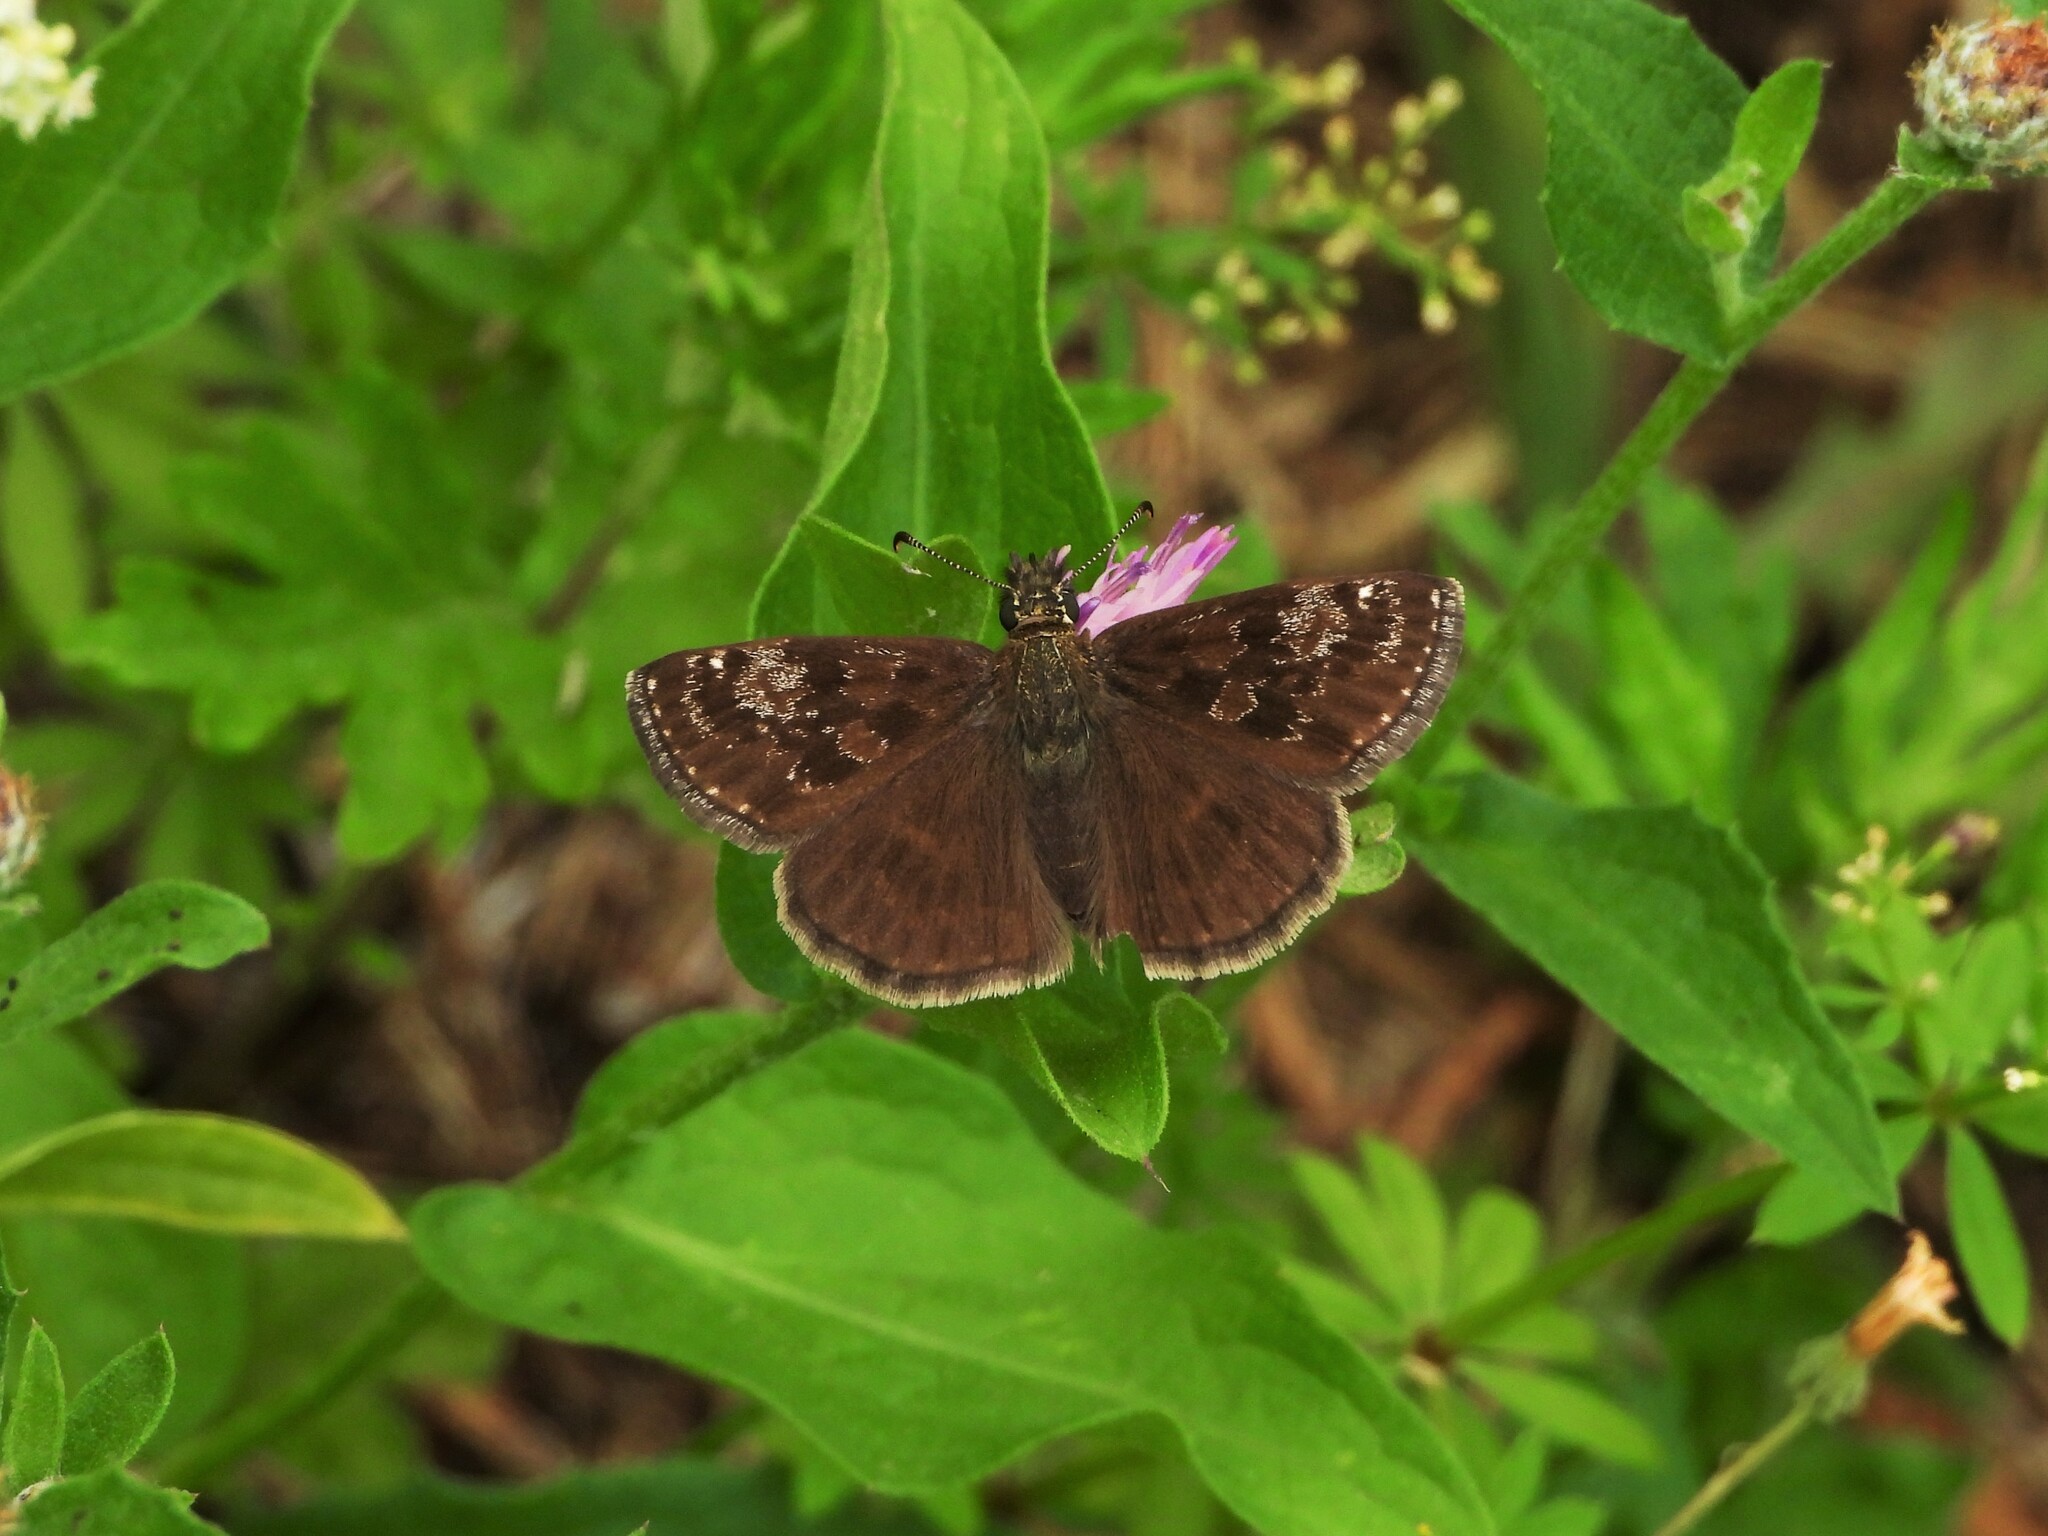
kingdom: Animalia
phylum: Arthropoda
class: Insecta
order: Lepidoptera
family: Hesperiidae
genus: Erynnis
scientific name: Erynnis tages
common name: Dingy skipper
